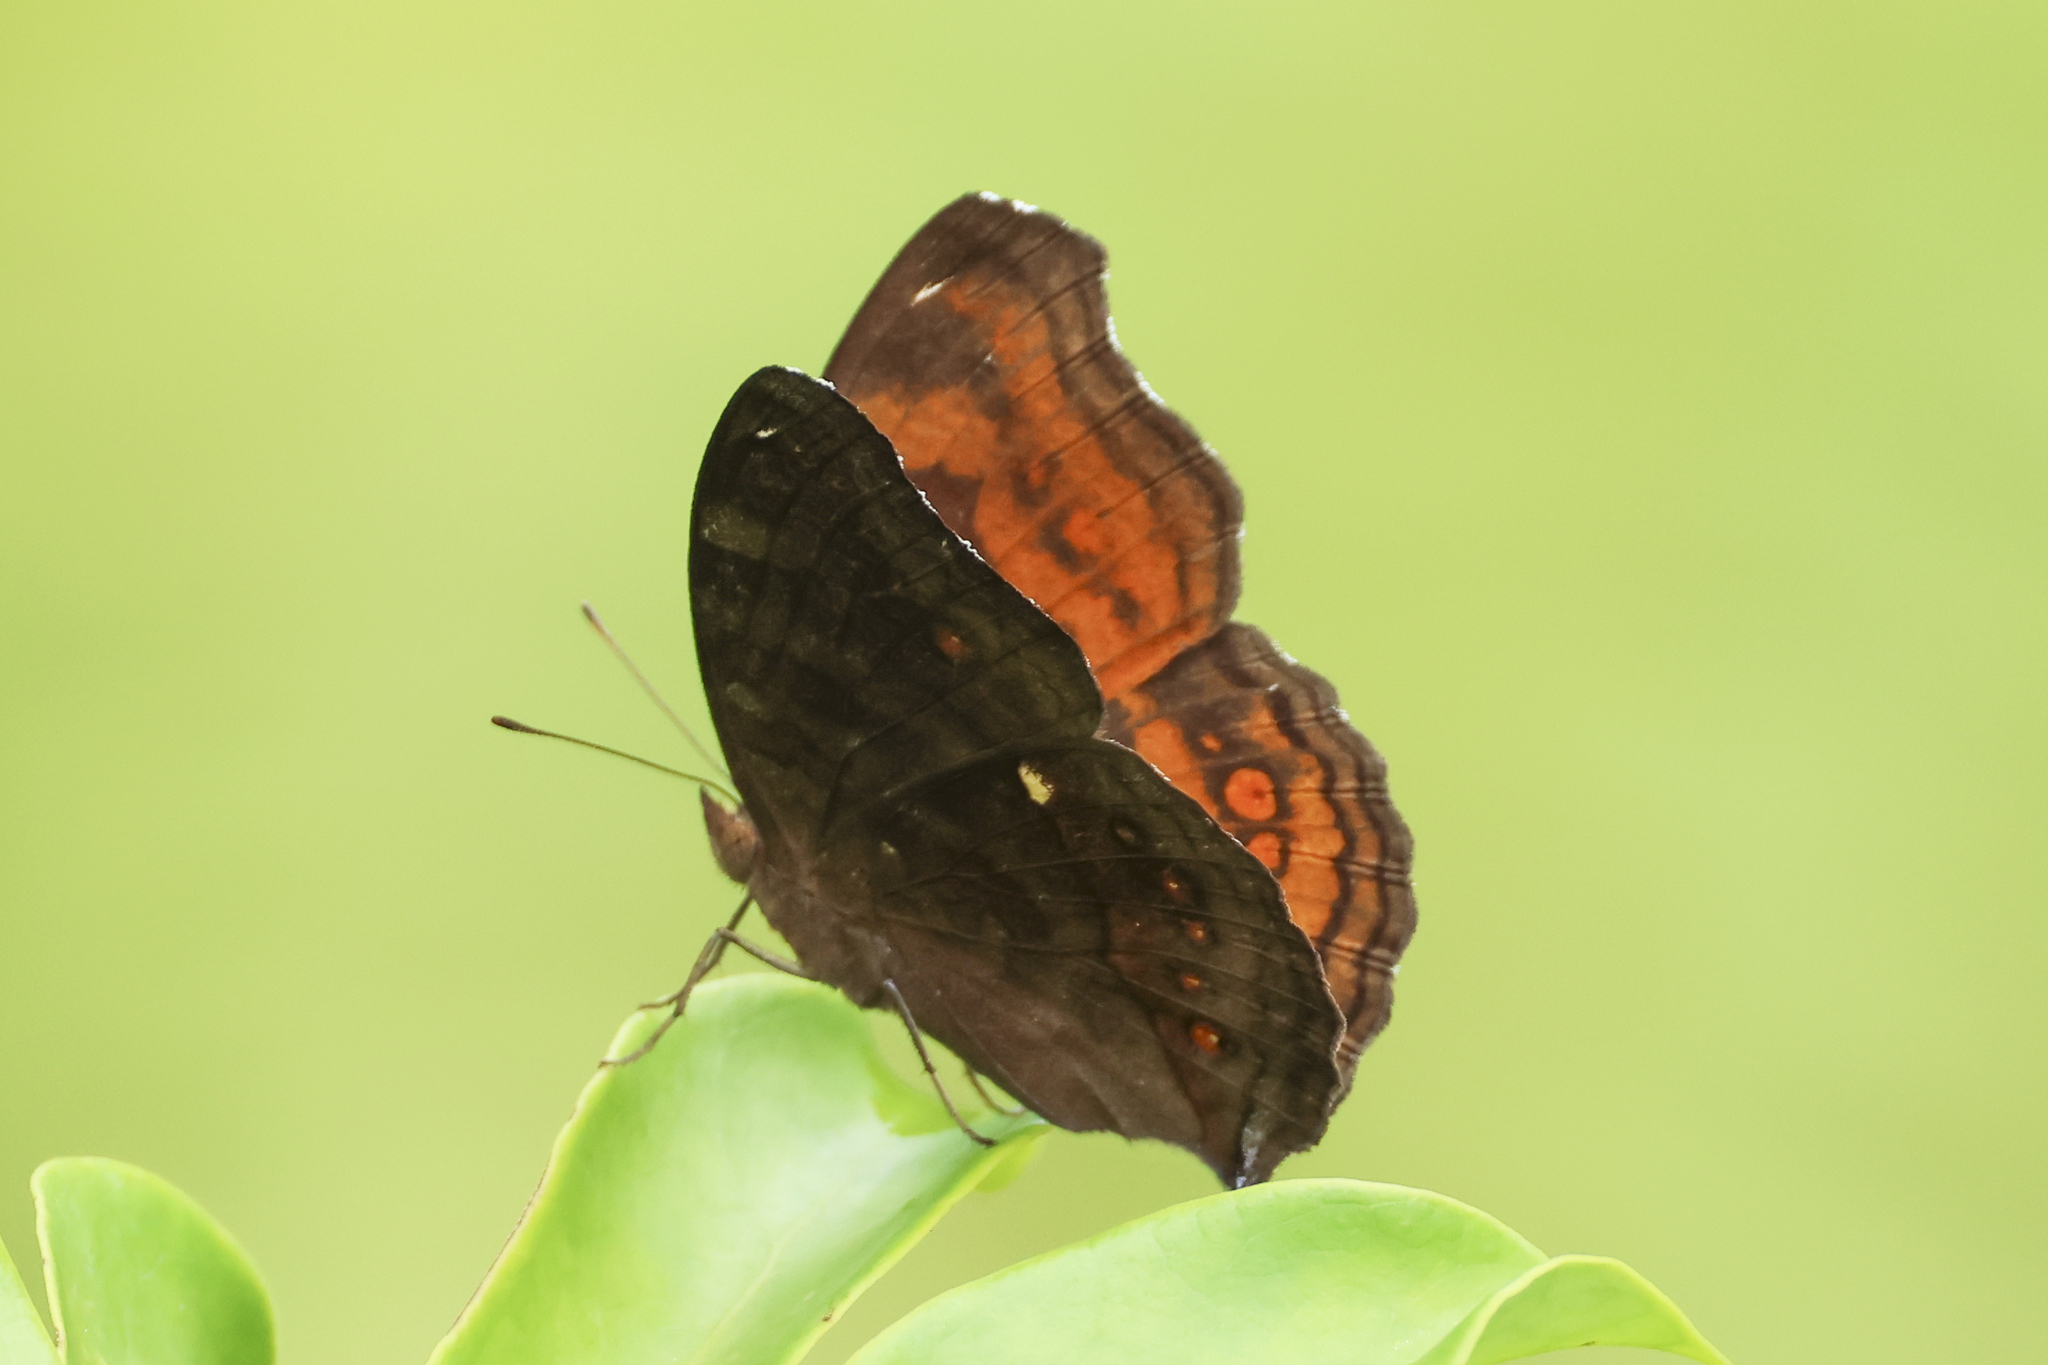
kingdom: Animalia
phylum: Arthropoda
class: Insecta
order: Lepidoptera
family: Nymphalidae
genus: Junonia
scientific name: Junonia hedonia
